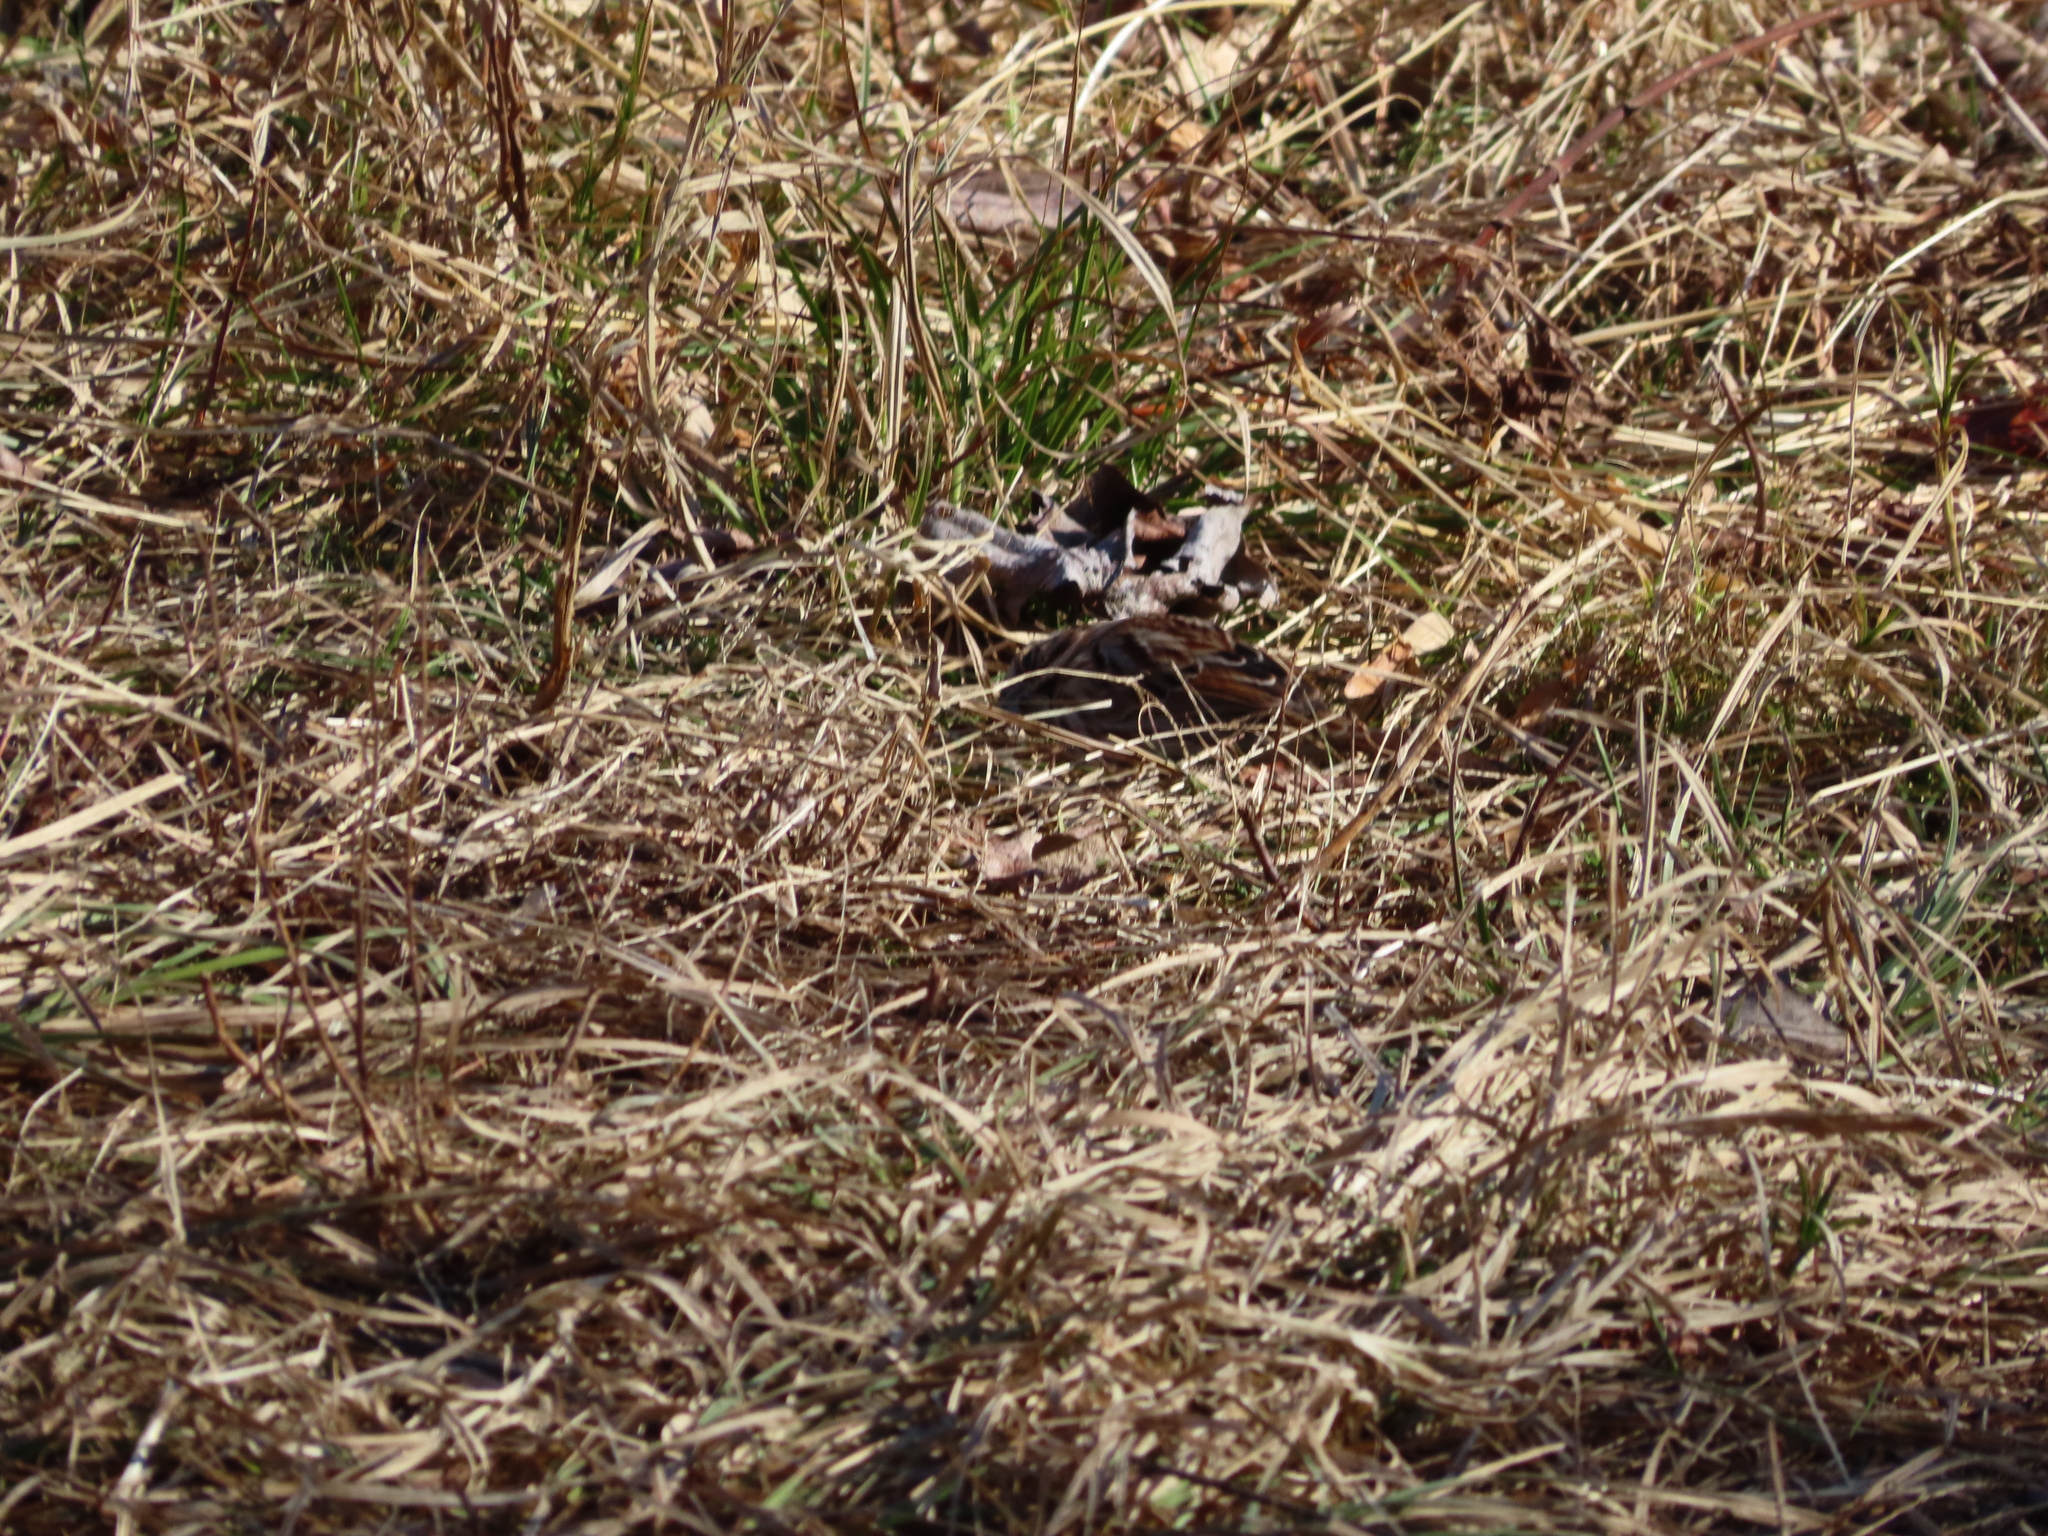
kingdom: Animalia
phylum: Chordata
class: Aves
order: Passeriformes
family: Passerellidae
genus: Melospiza
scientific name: Melospiza melodia
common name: Song sparrow
